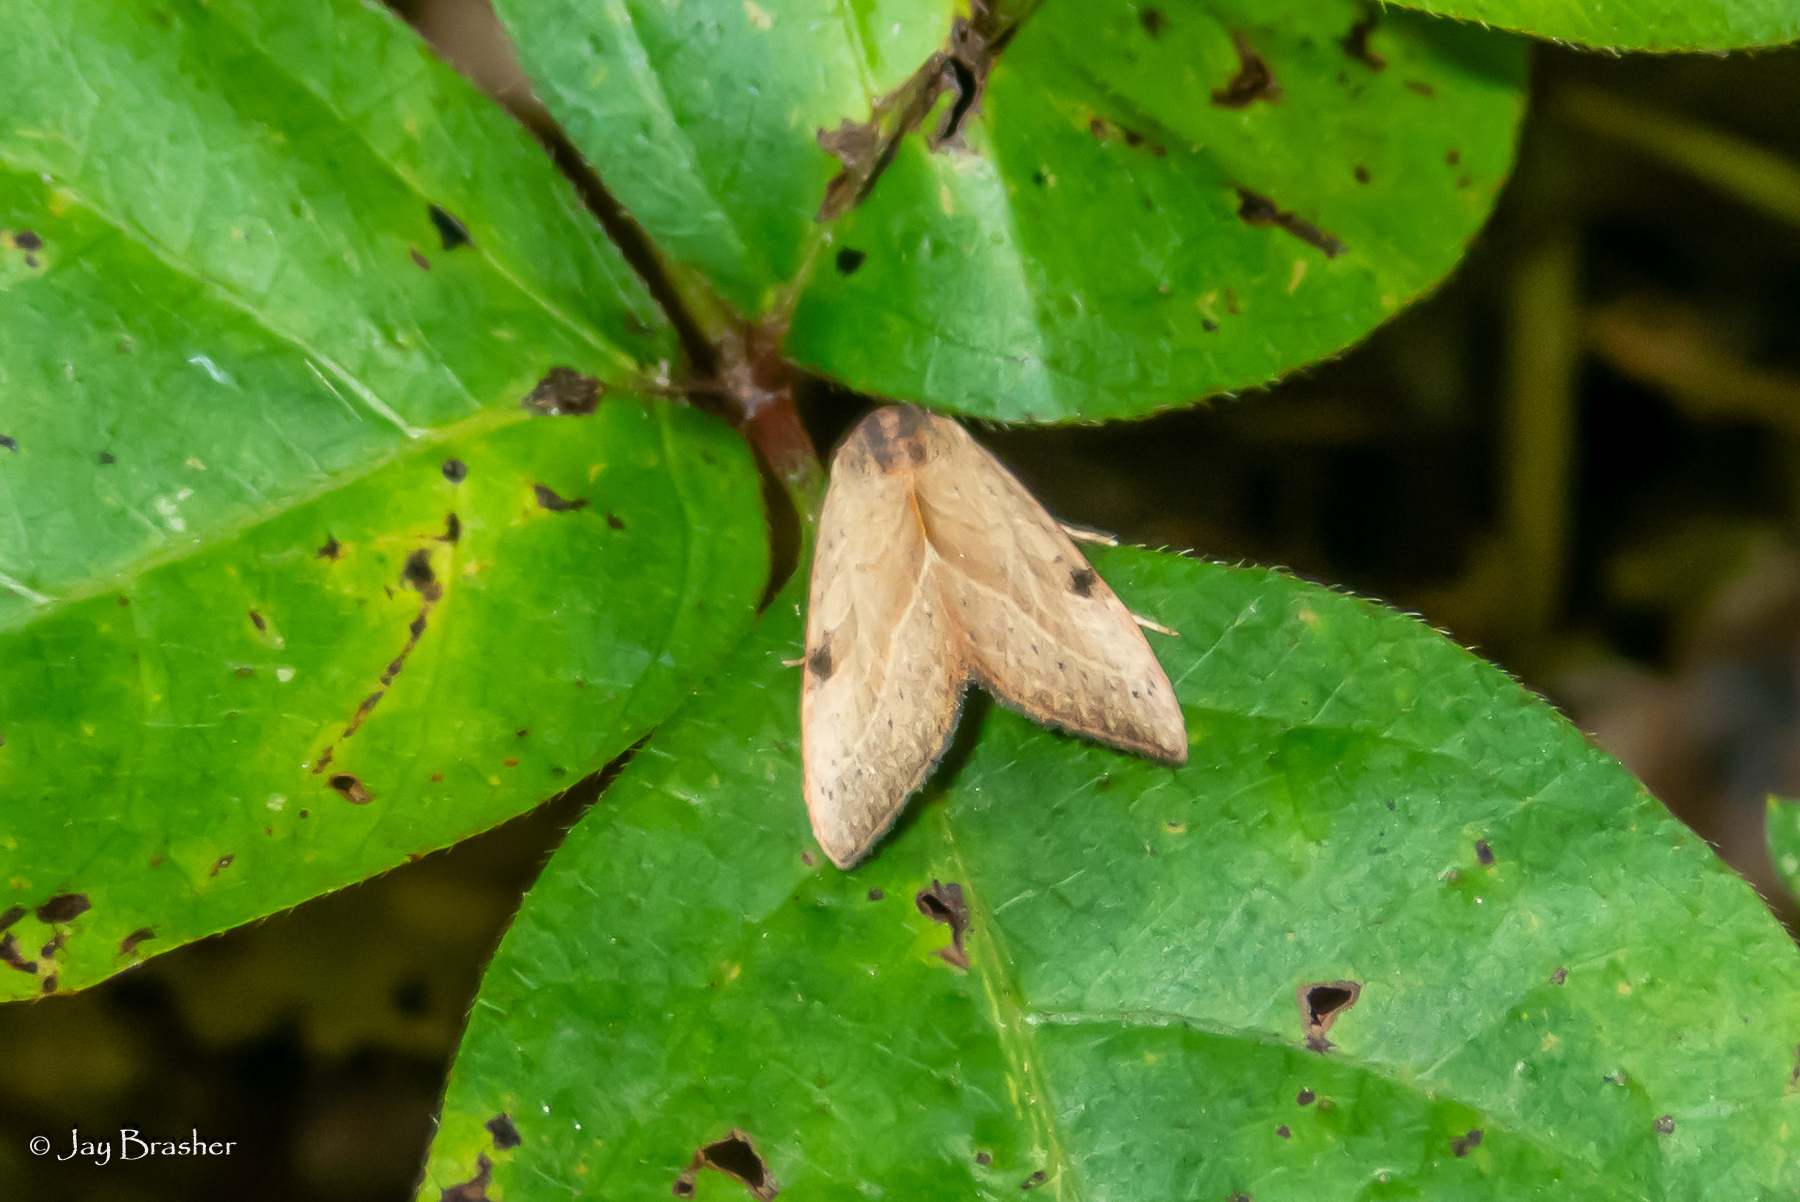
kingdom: Animalia
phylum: Arthropoda
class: Insecta
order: Lepidoptera
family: Noctuidae
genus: Galgula
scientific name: Galgula partita
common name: Wedgeling
